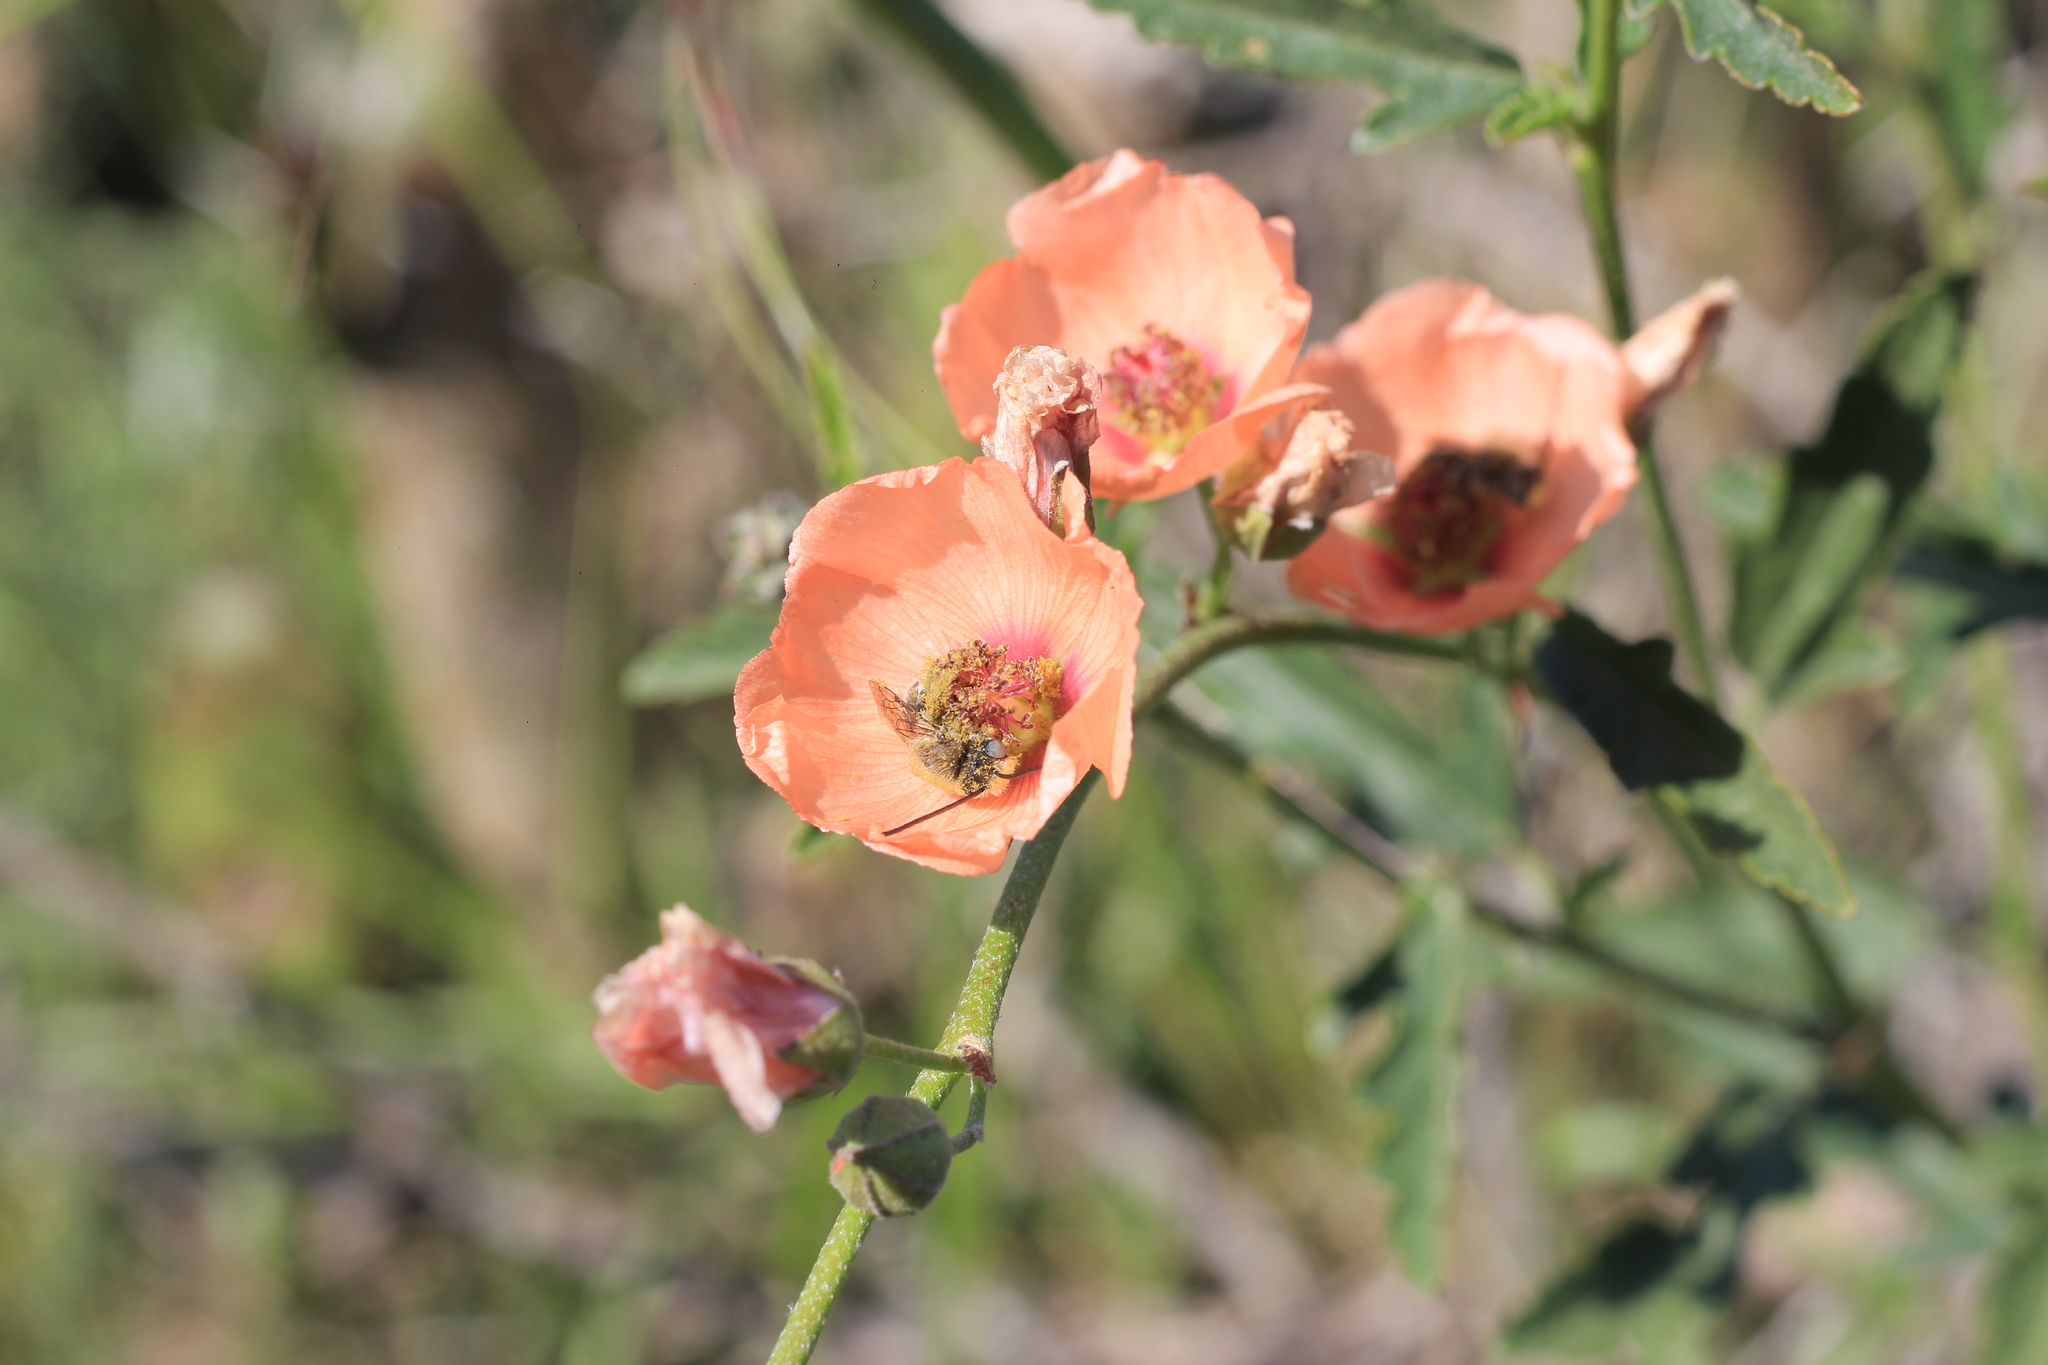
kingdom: Plantae
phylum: Tracheophyta
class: Magnoliopsida
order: Malvales
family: Malvaceae
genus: Sphaeralcea
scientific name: Sphaeralcea chenopodifolia
